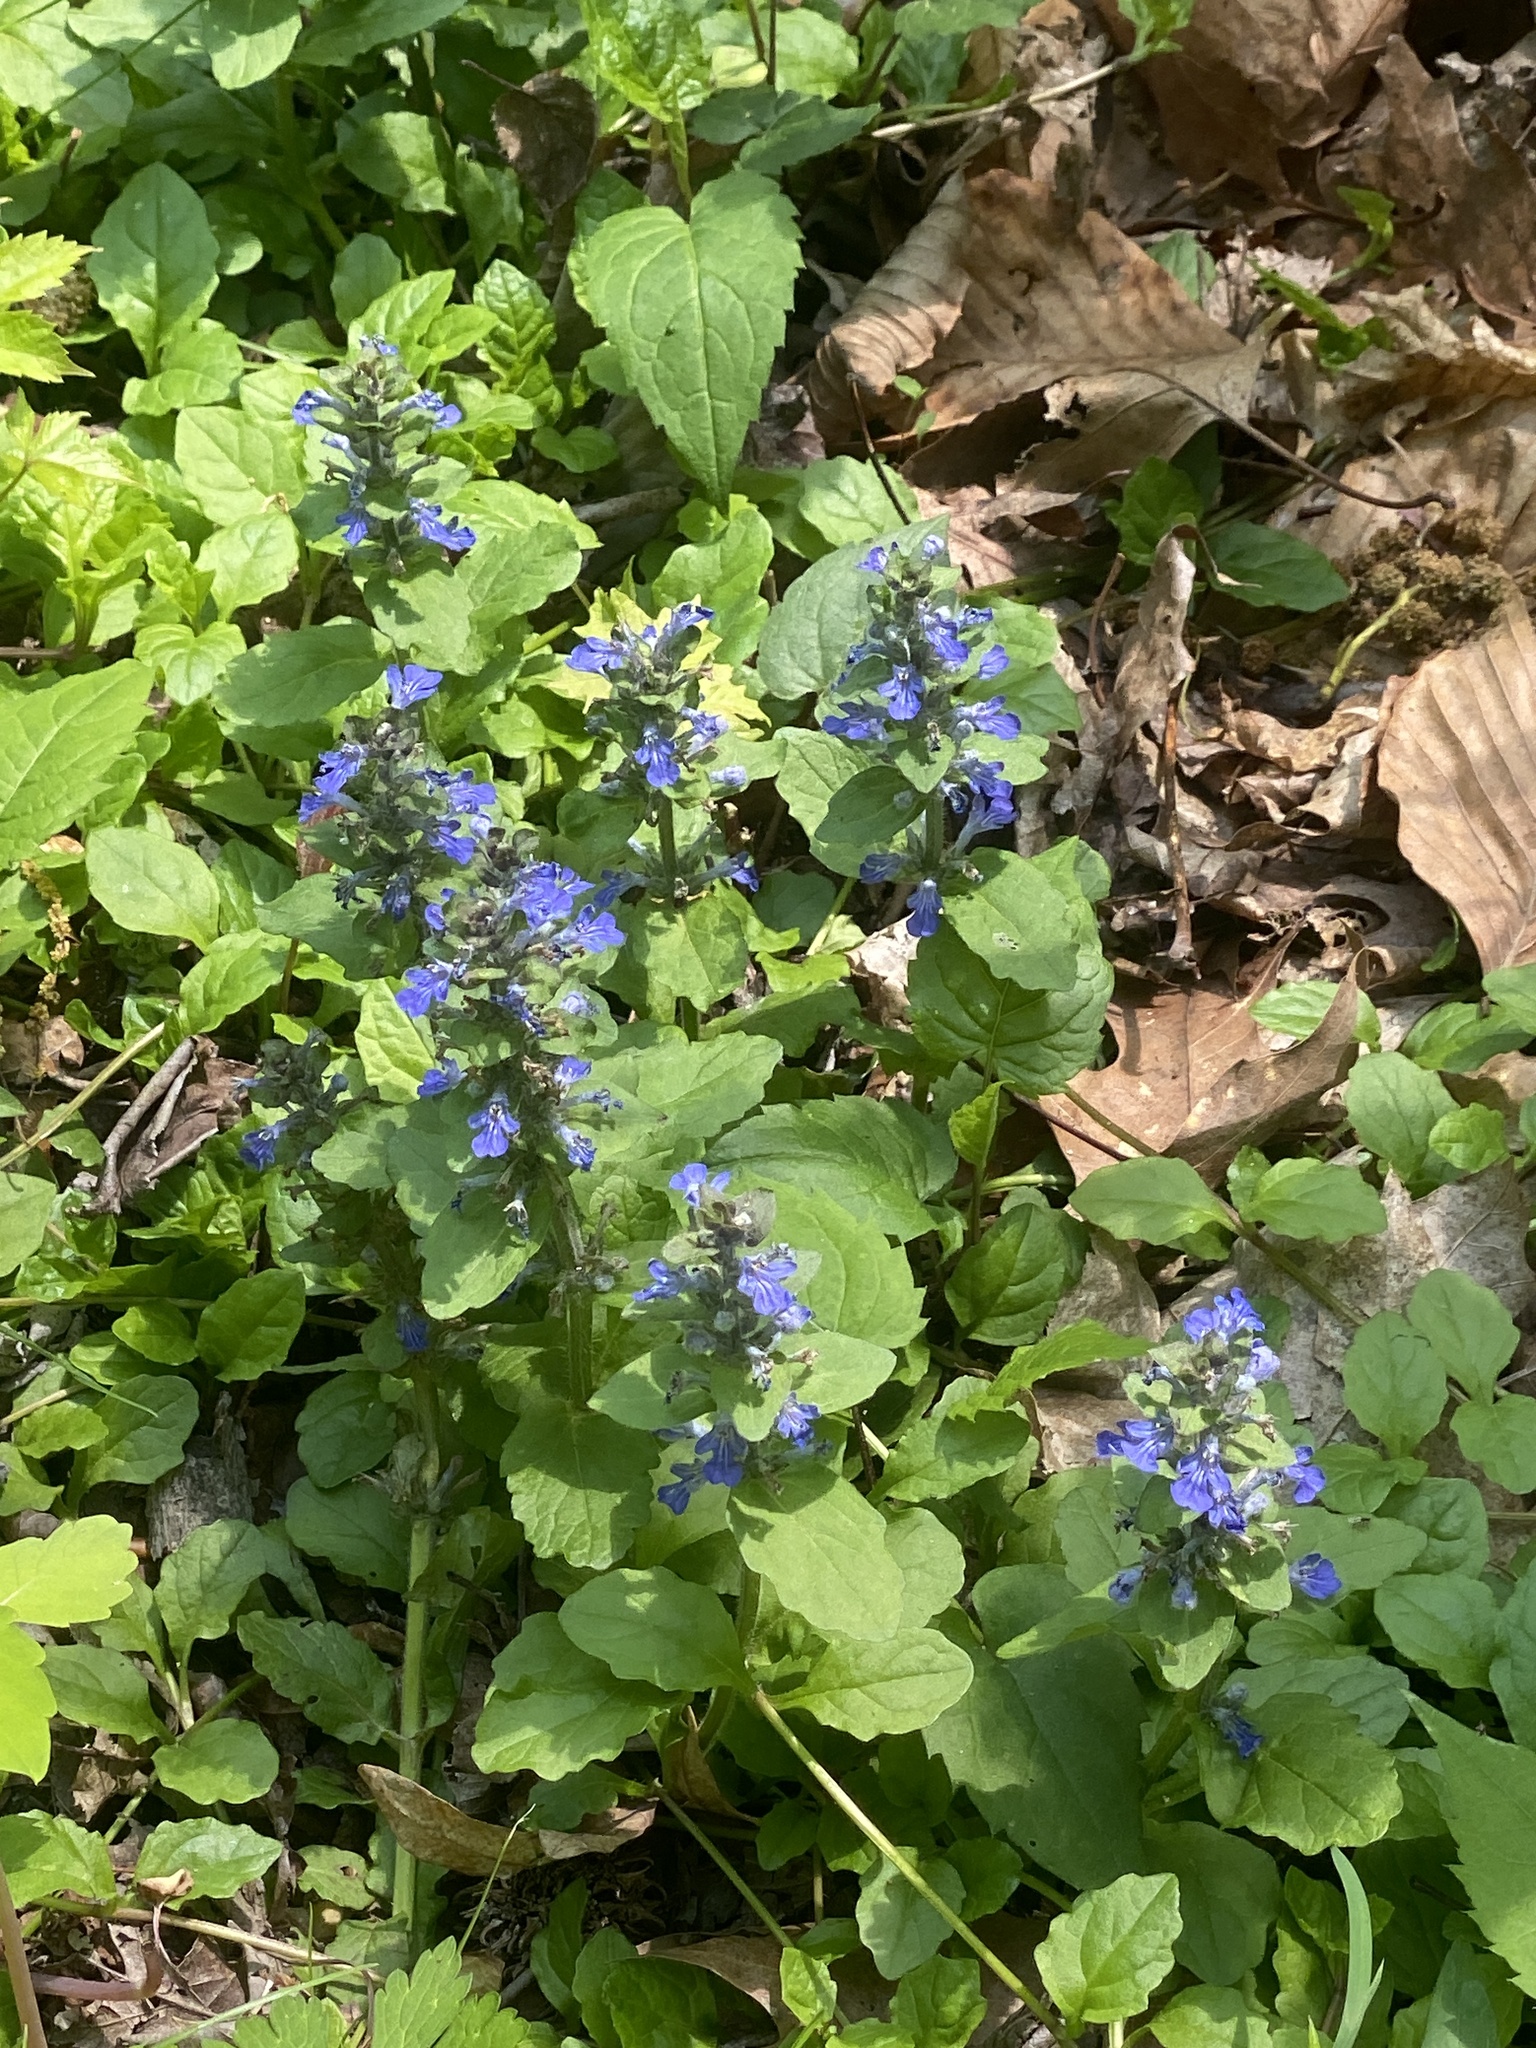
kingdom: Plantae
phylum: Tracheophyta
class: Magnoliopsida
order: Lamiales
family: Lamiaceae
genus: Ajuga
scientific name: Ajuga reptans
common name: Bugle
